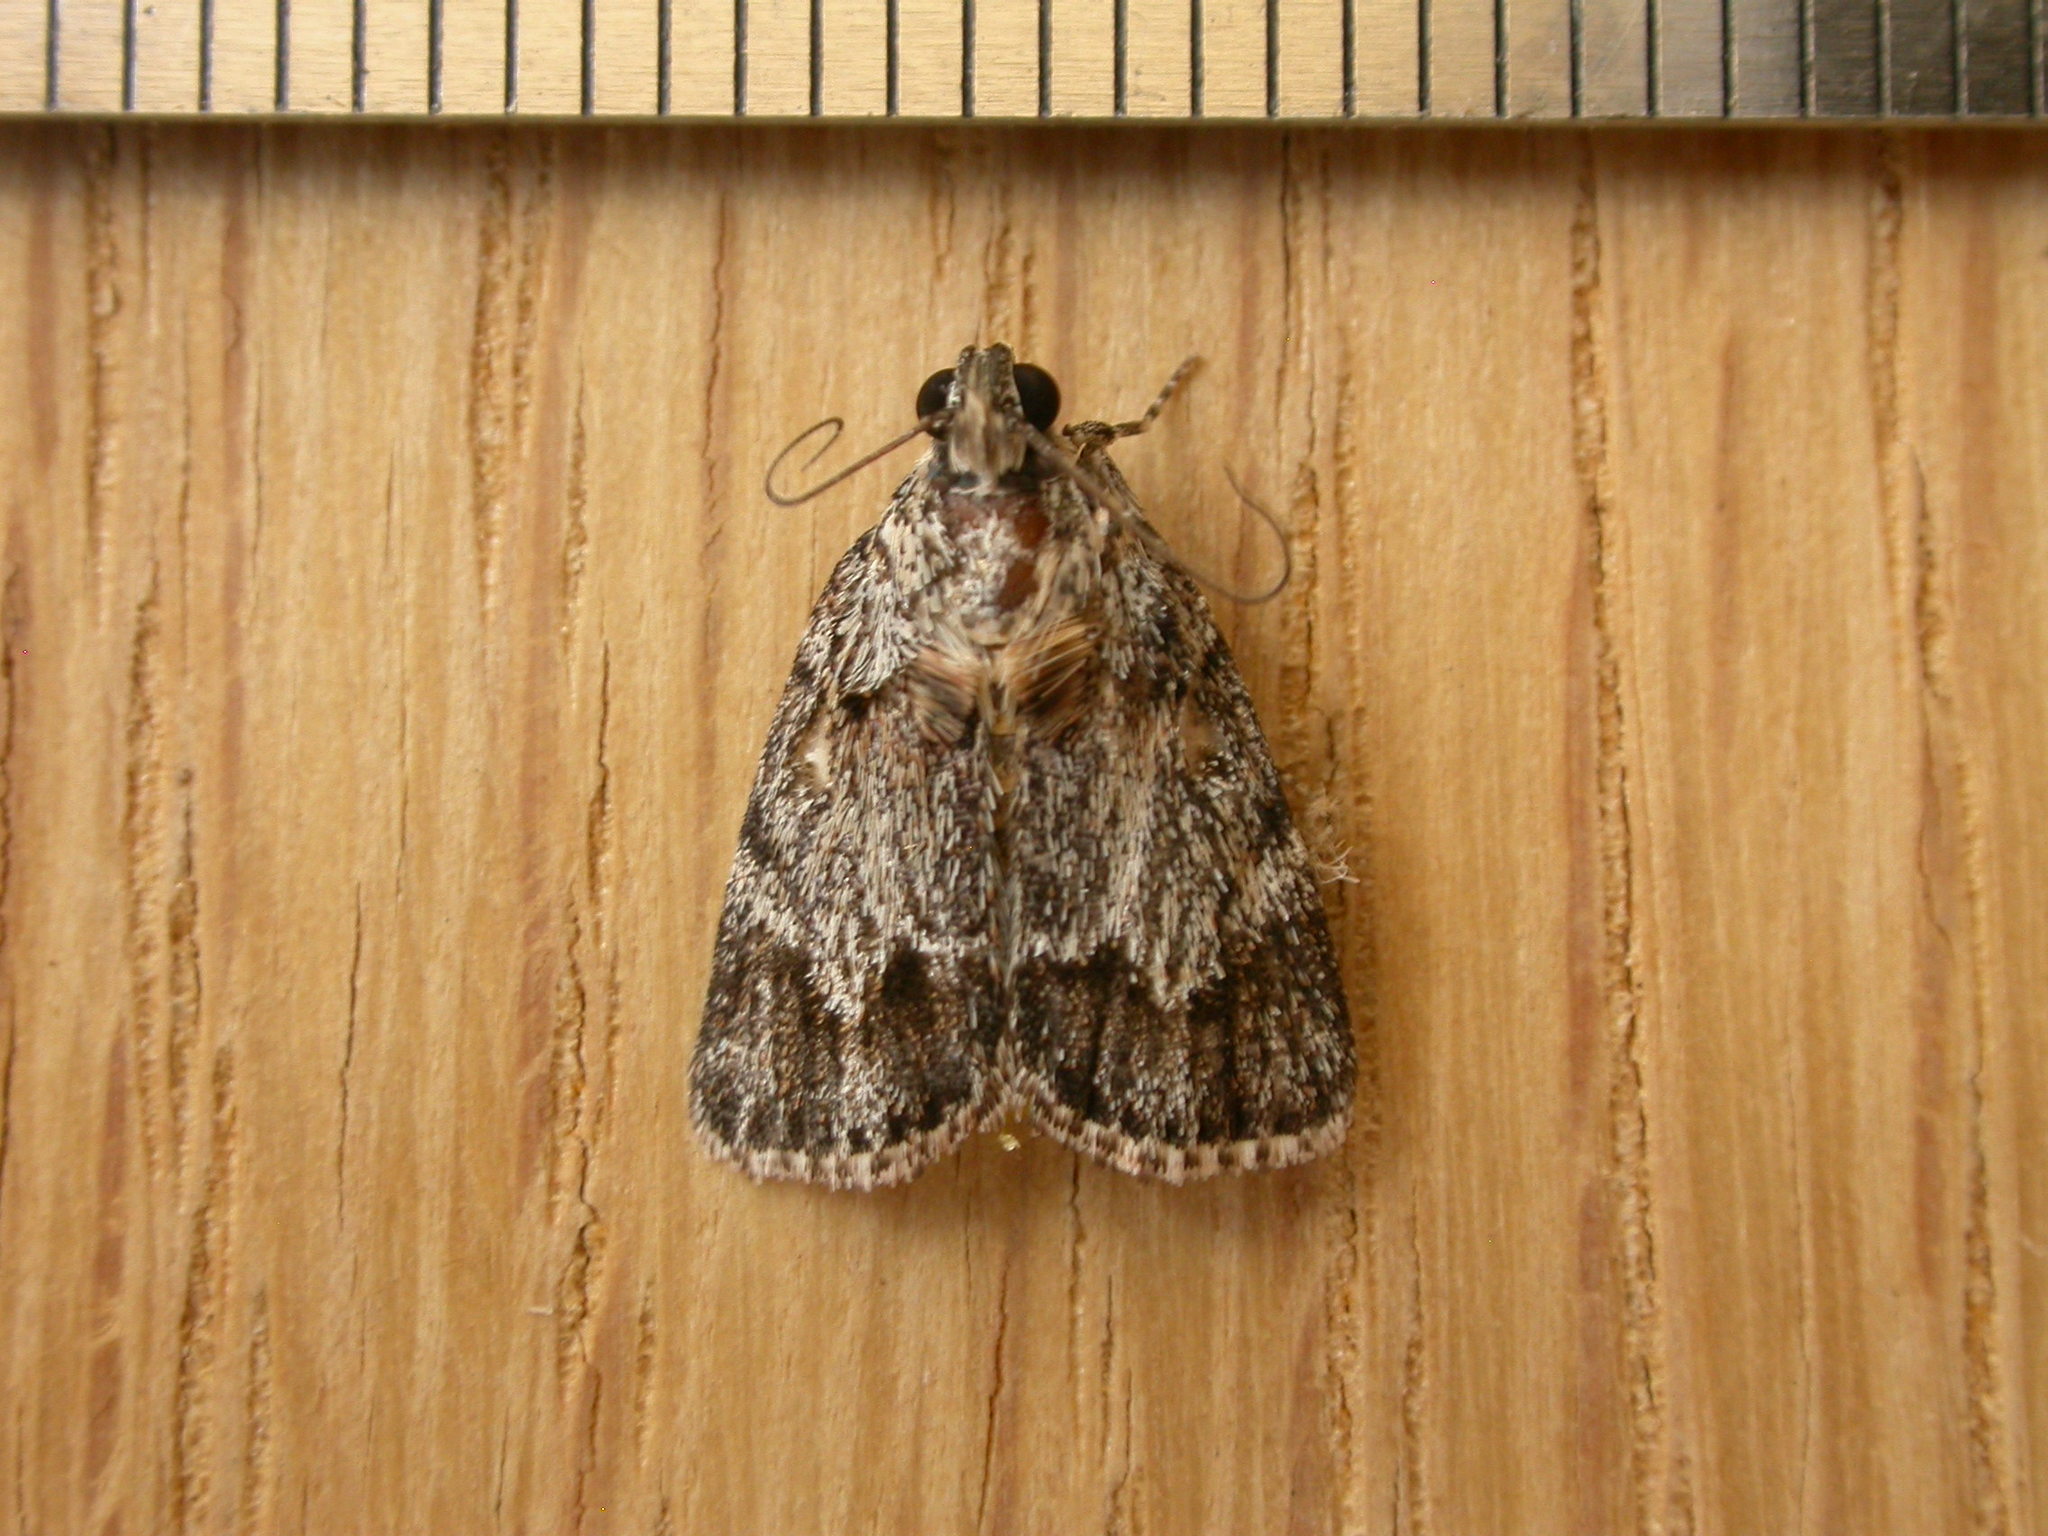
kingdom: Animalia
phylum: Arthropoda
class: Insecta
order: Lepidoptera
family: Pyralidae
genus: Spectrotrota
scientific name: Spectrotrota fimbrialis
